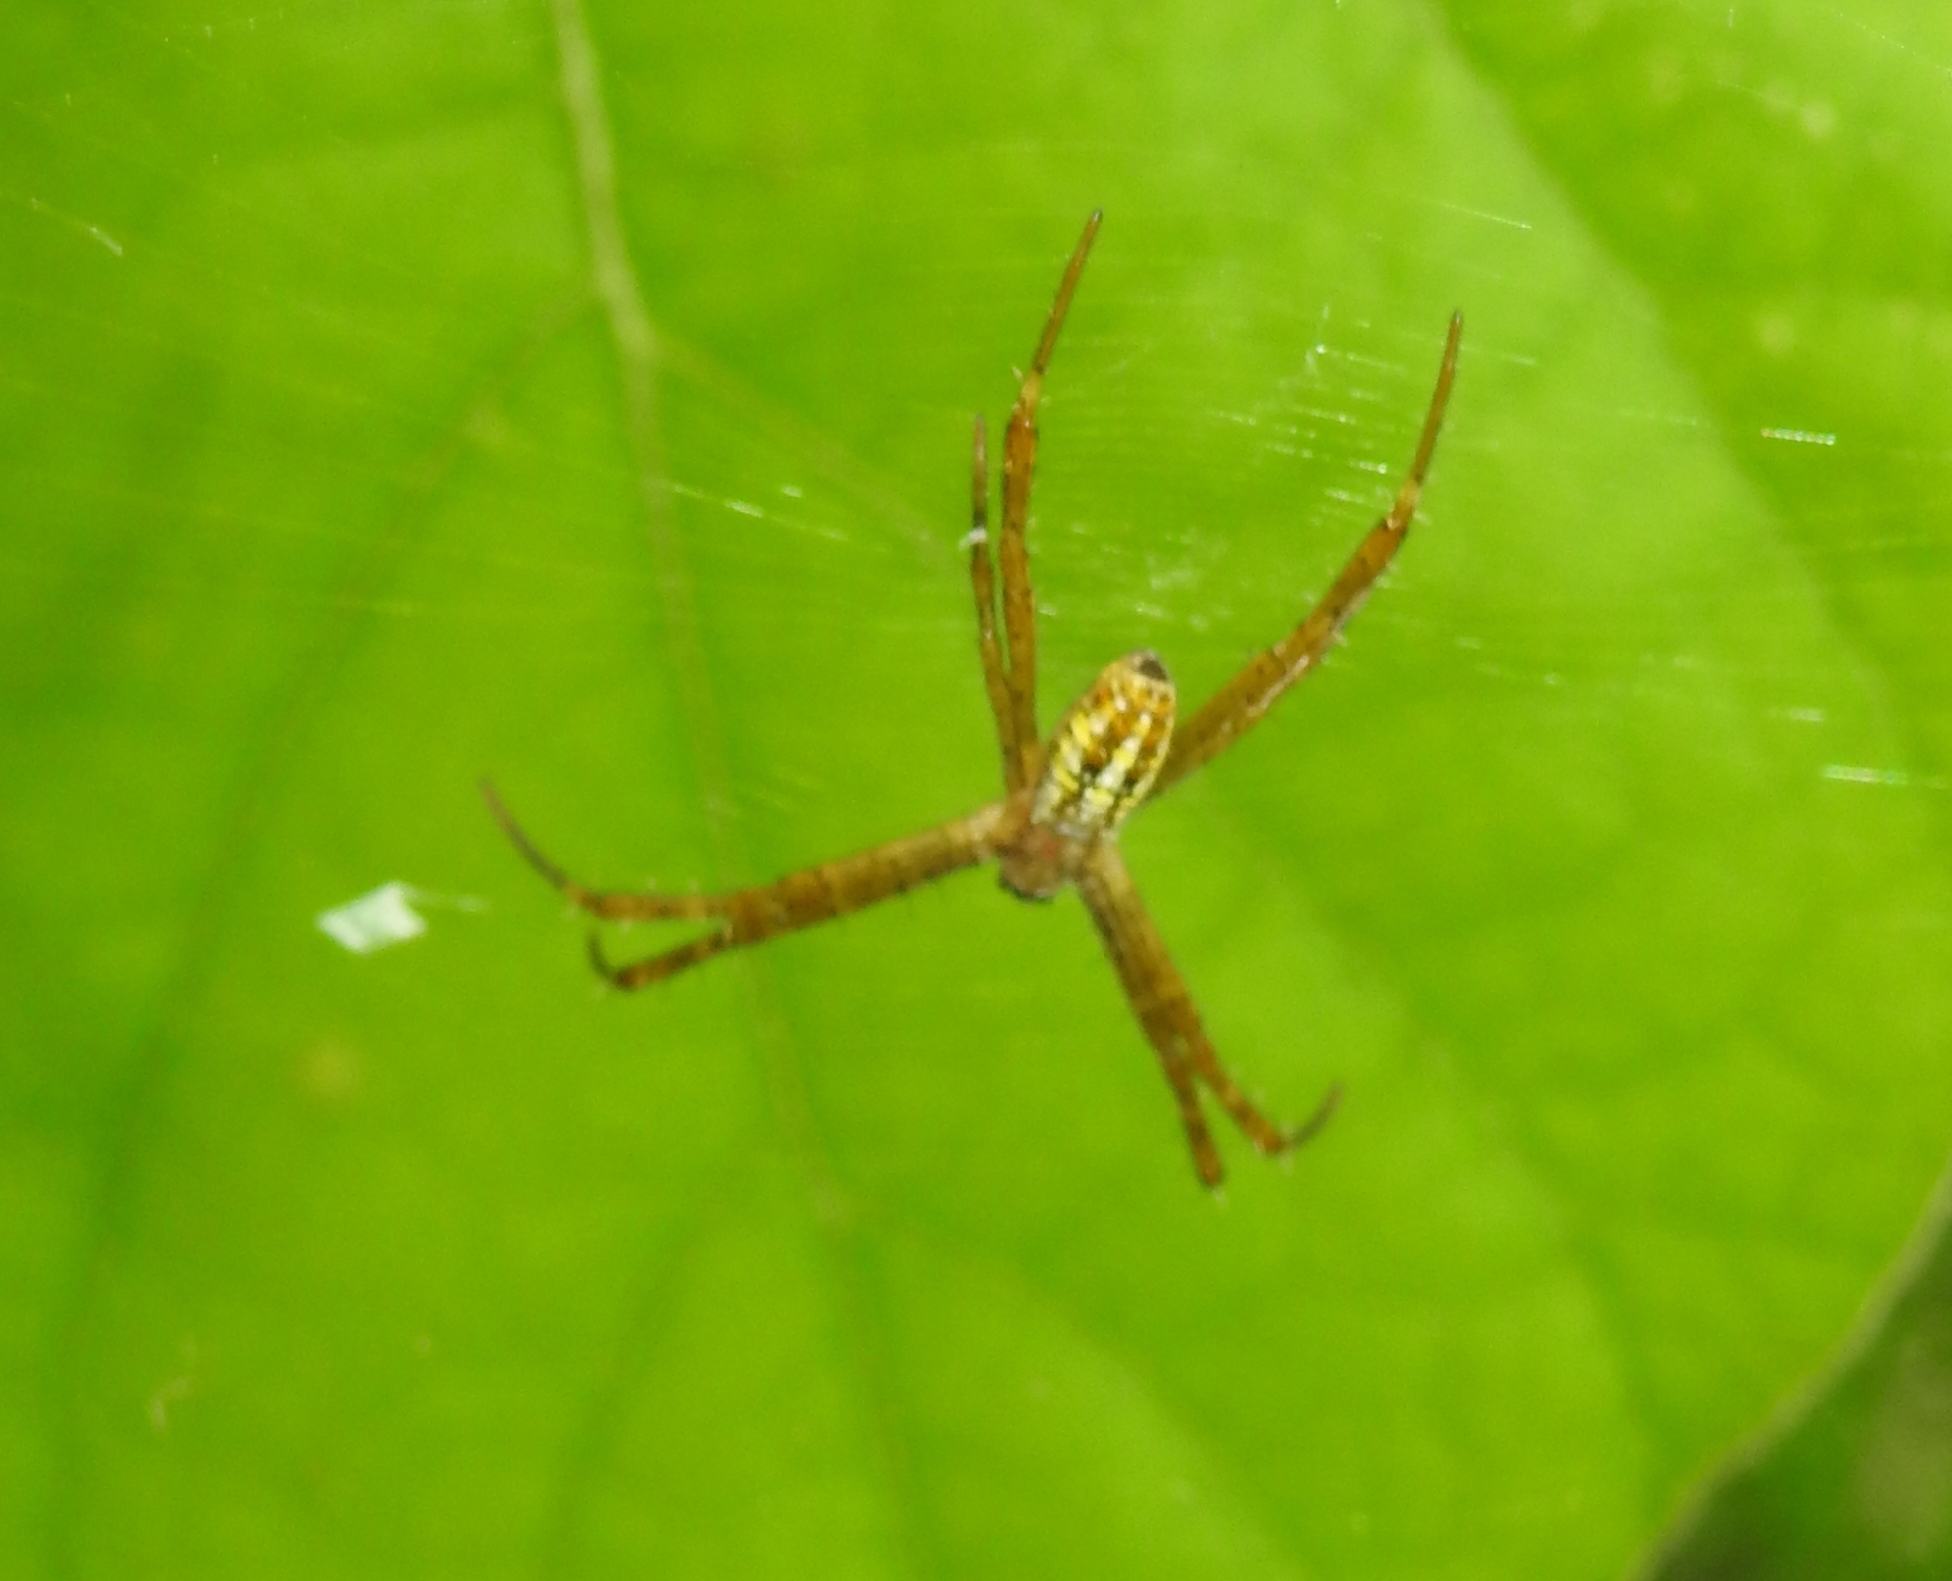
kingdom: Animalia
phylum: Arthropoda
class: Arachnida
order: Araneae
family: Araneidae
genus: Argiope
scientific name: Argiope dang
